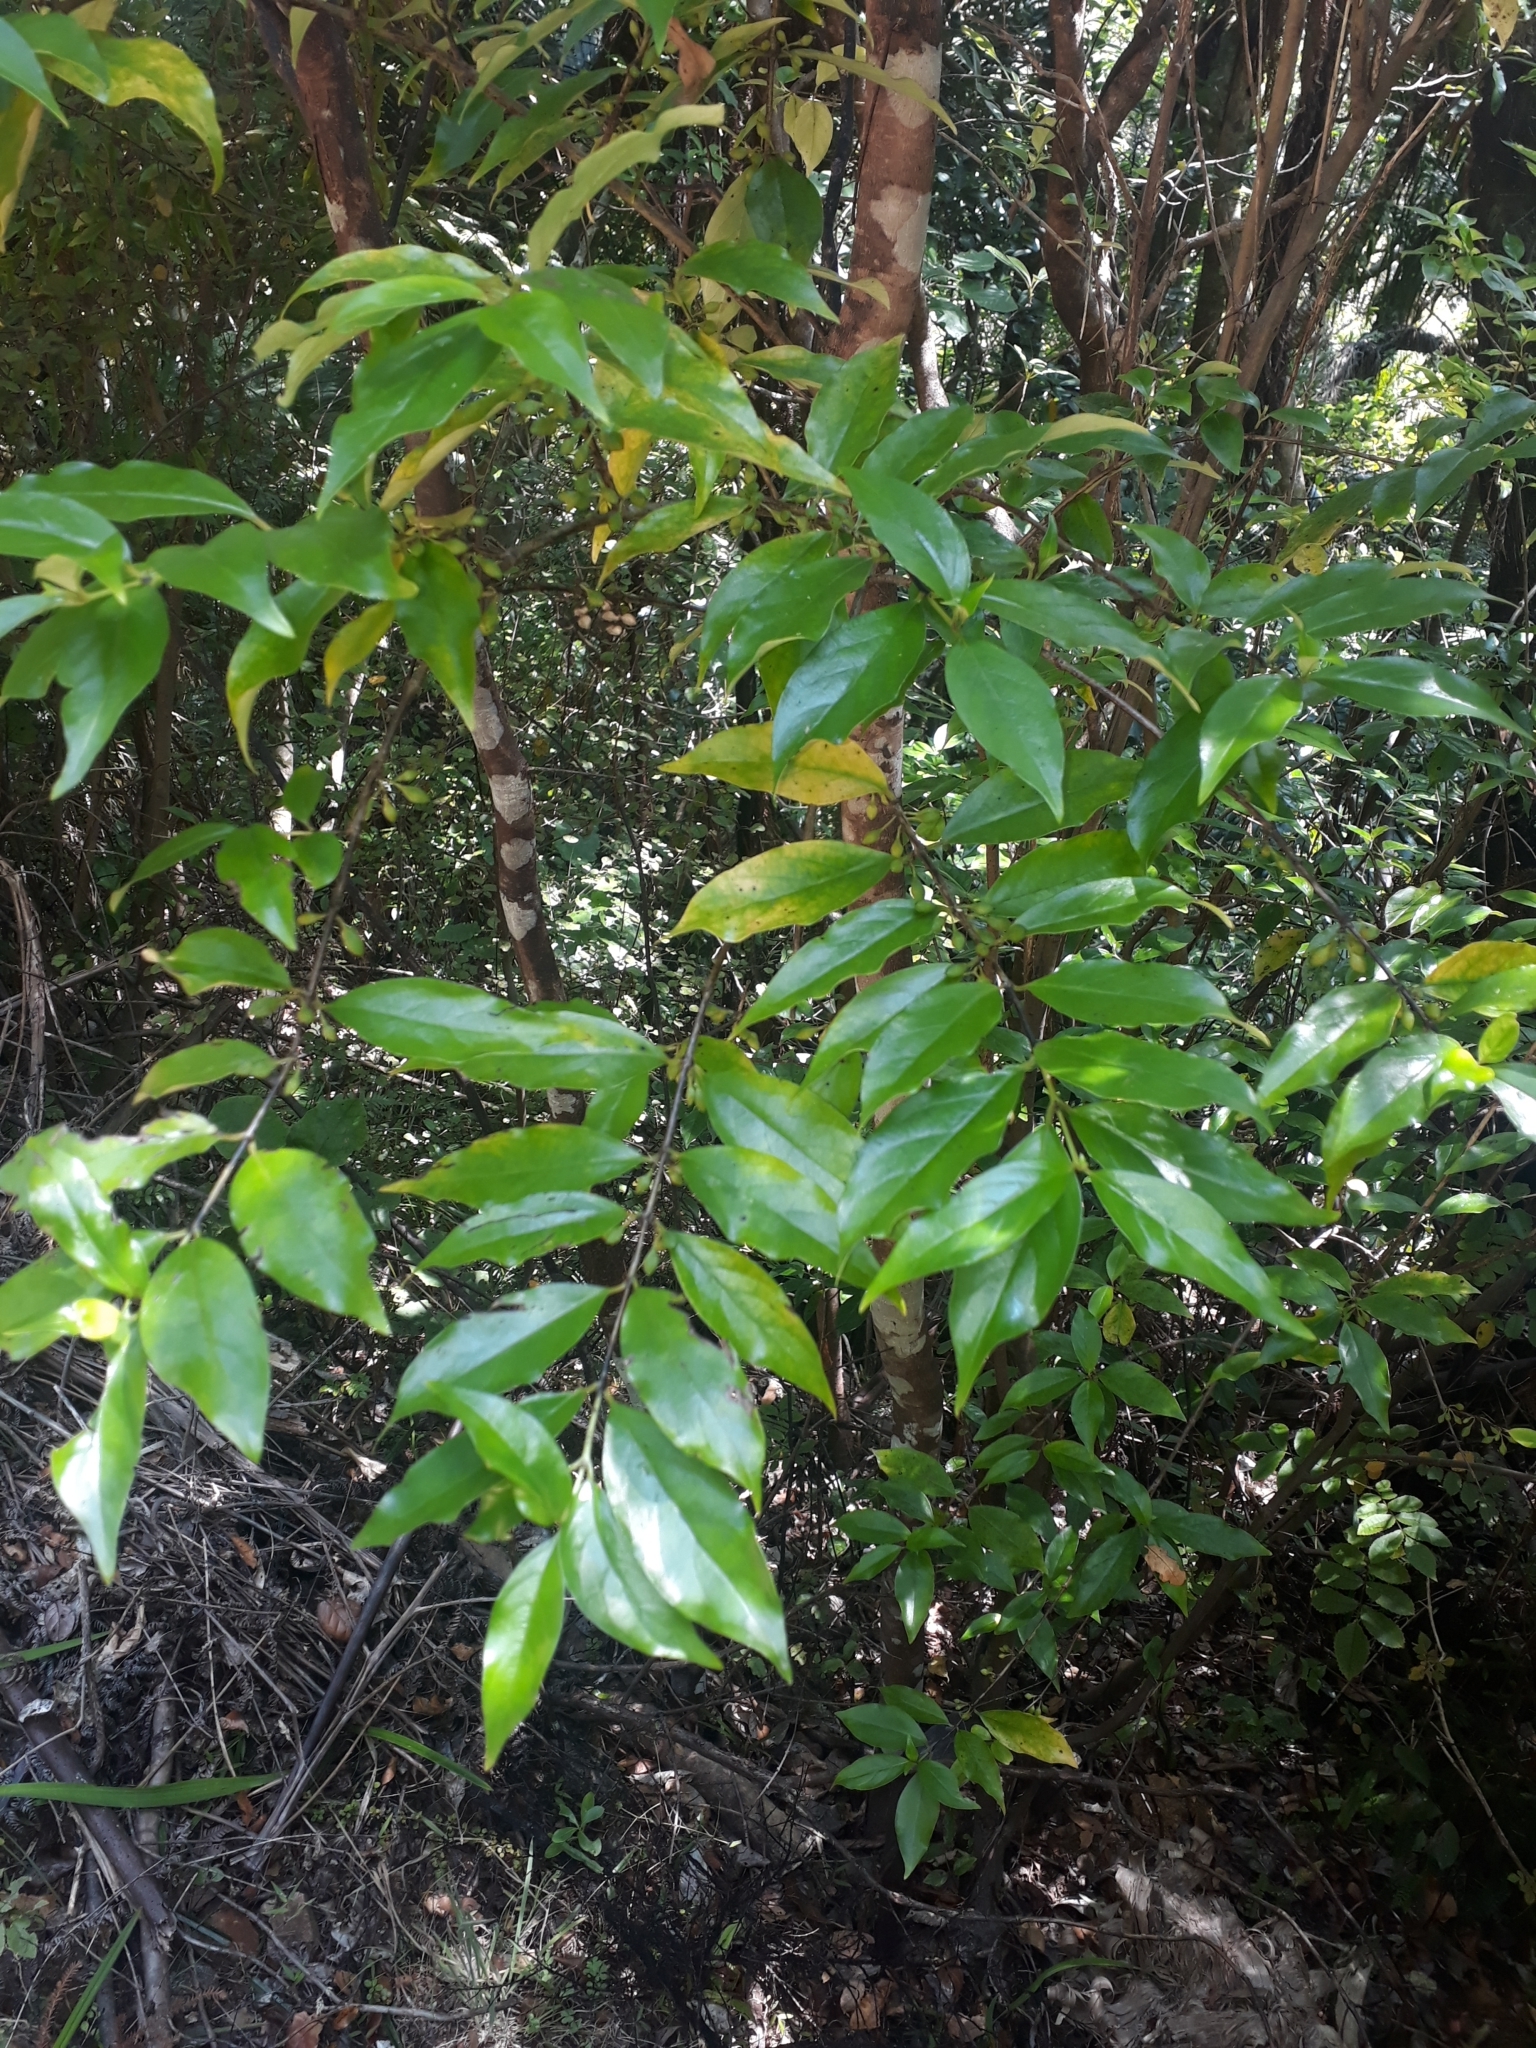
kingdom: Plantae
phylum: Tracheophyta
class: Magnoliopsida
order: Gentianales
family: Loganiaceae
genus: Geniostoma
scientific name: Geniostoma ligustrifolium
